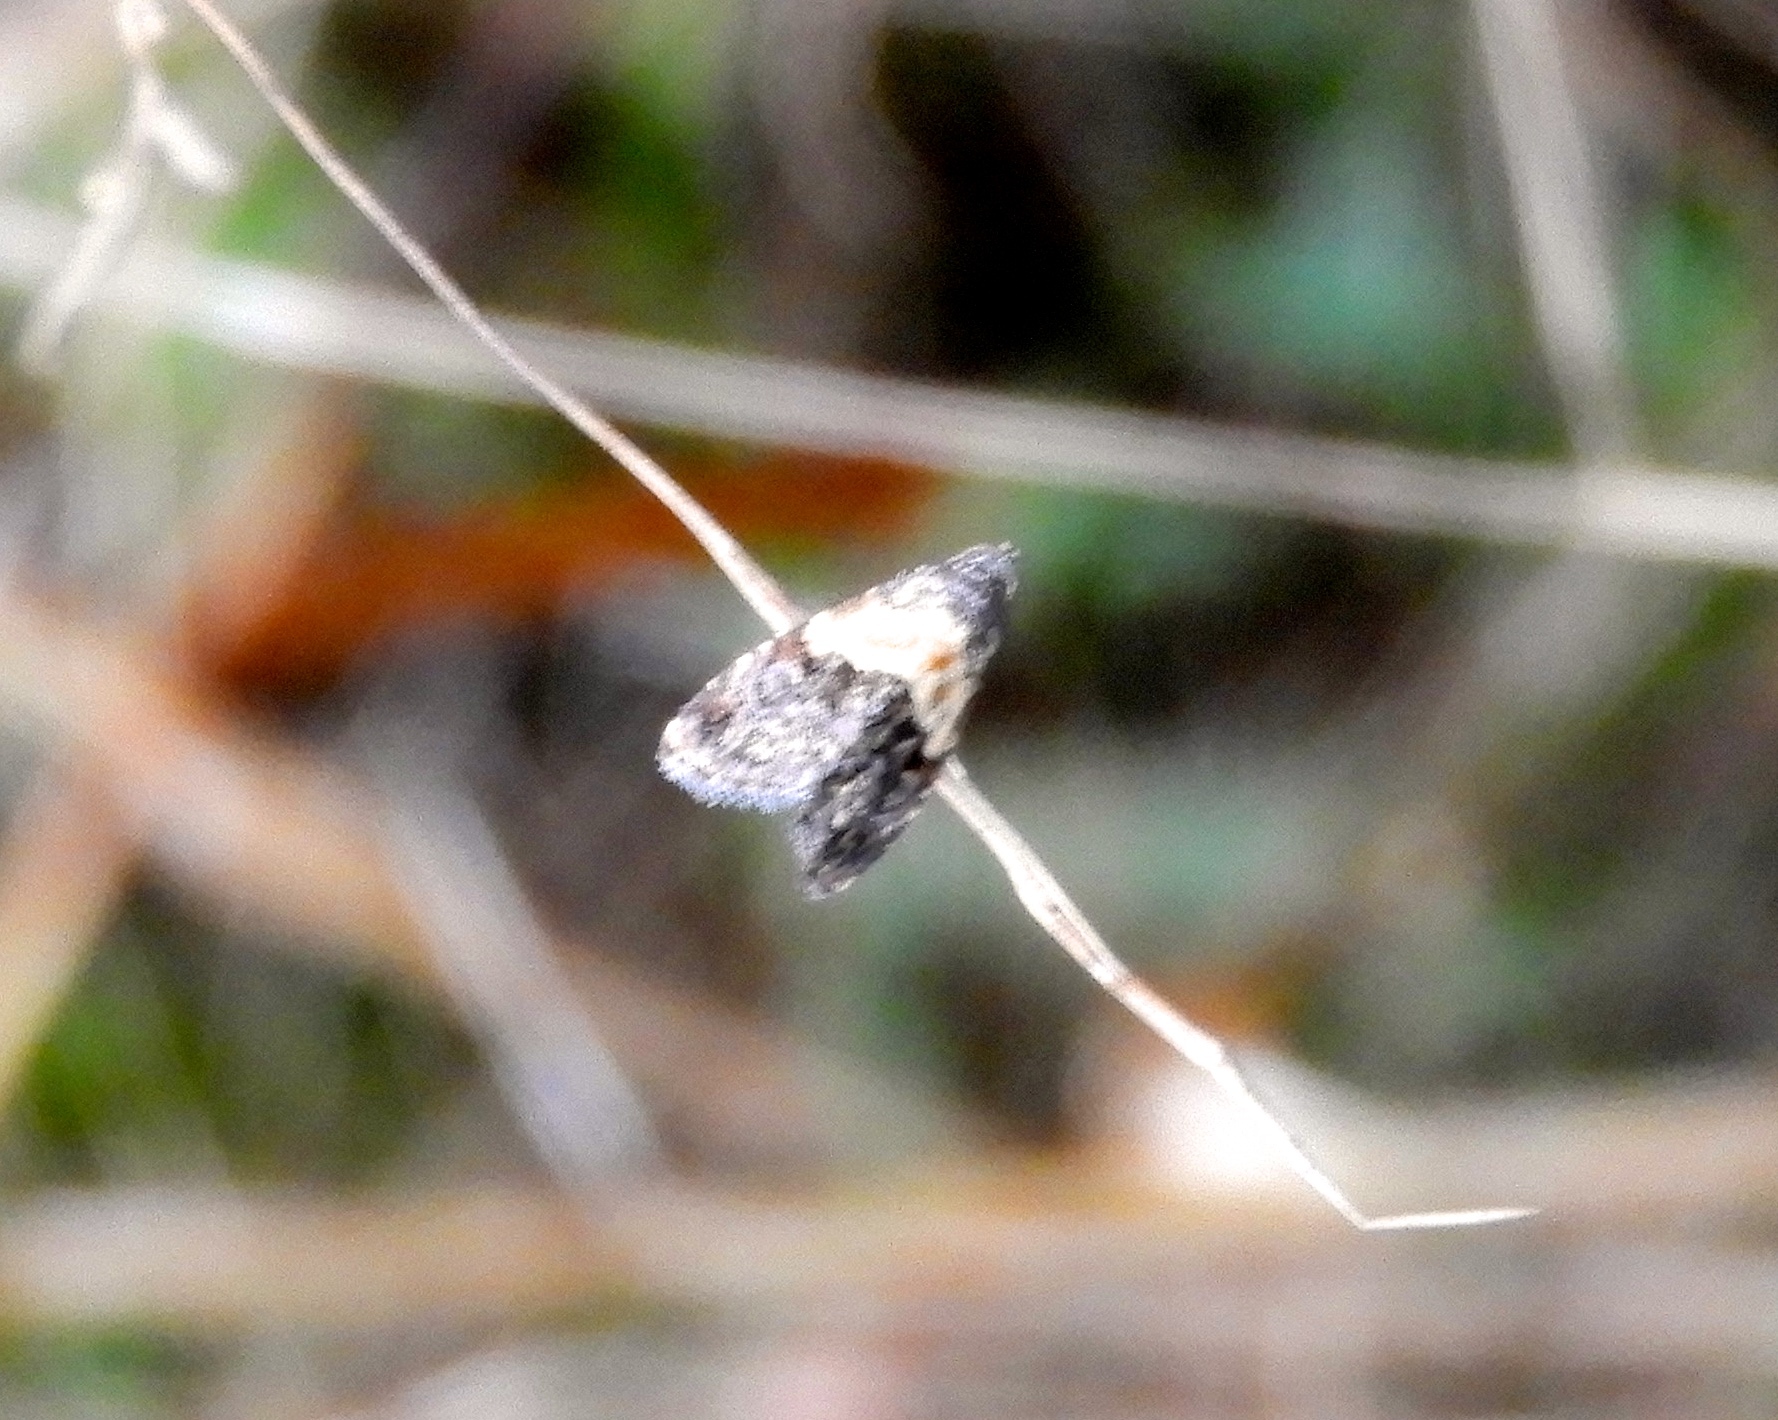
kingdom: Animalia
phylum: Arthropoda
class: Insecta
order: Lepidoptera
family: Noctuidae
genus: Tripudia
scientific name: Tripudia
